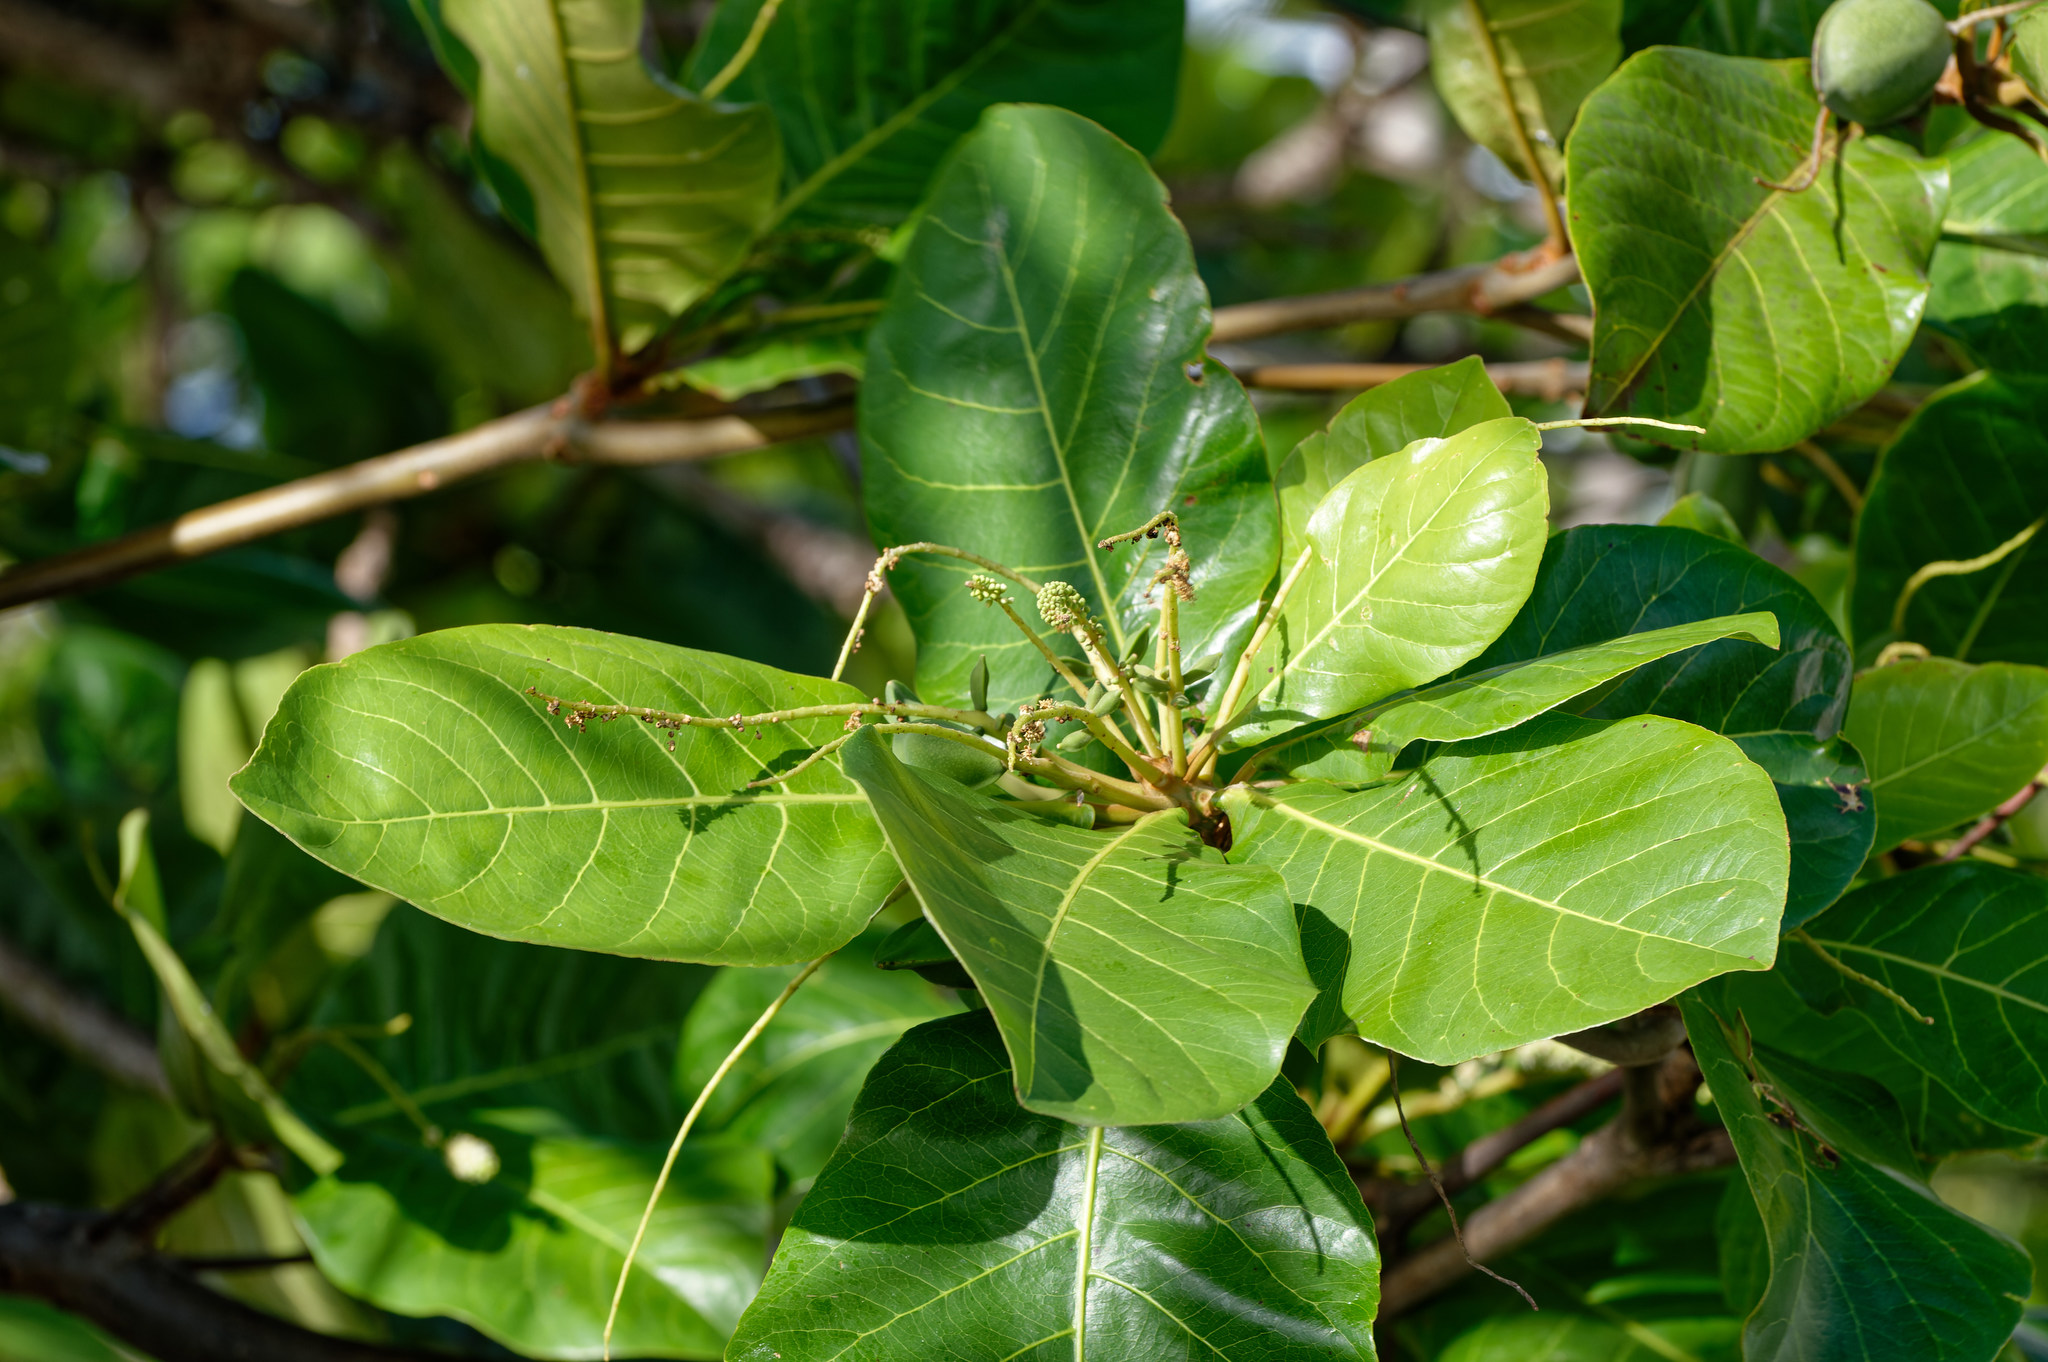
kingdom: Plantae
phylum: Tracheophyta
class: Magnoliopsida
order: Myrtales
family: Combretaceae
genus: Terminalia
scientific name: Terminalia catappa
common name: Tropical almond
